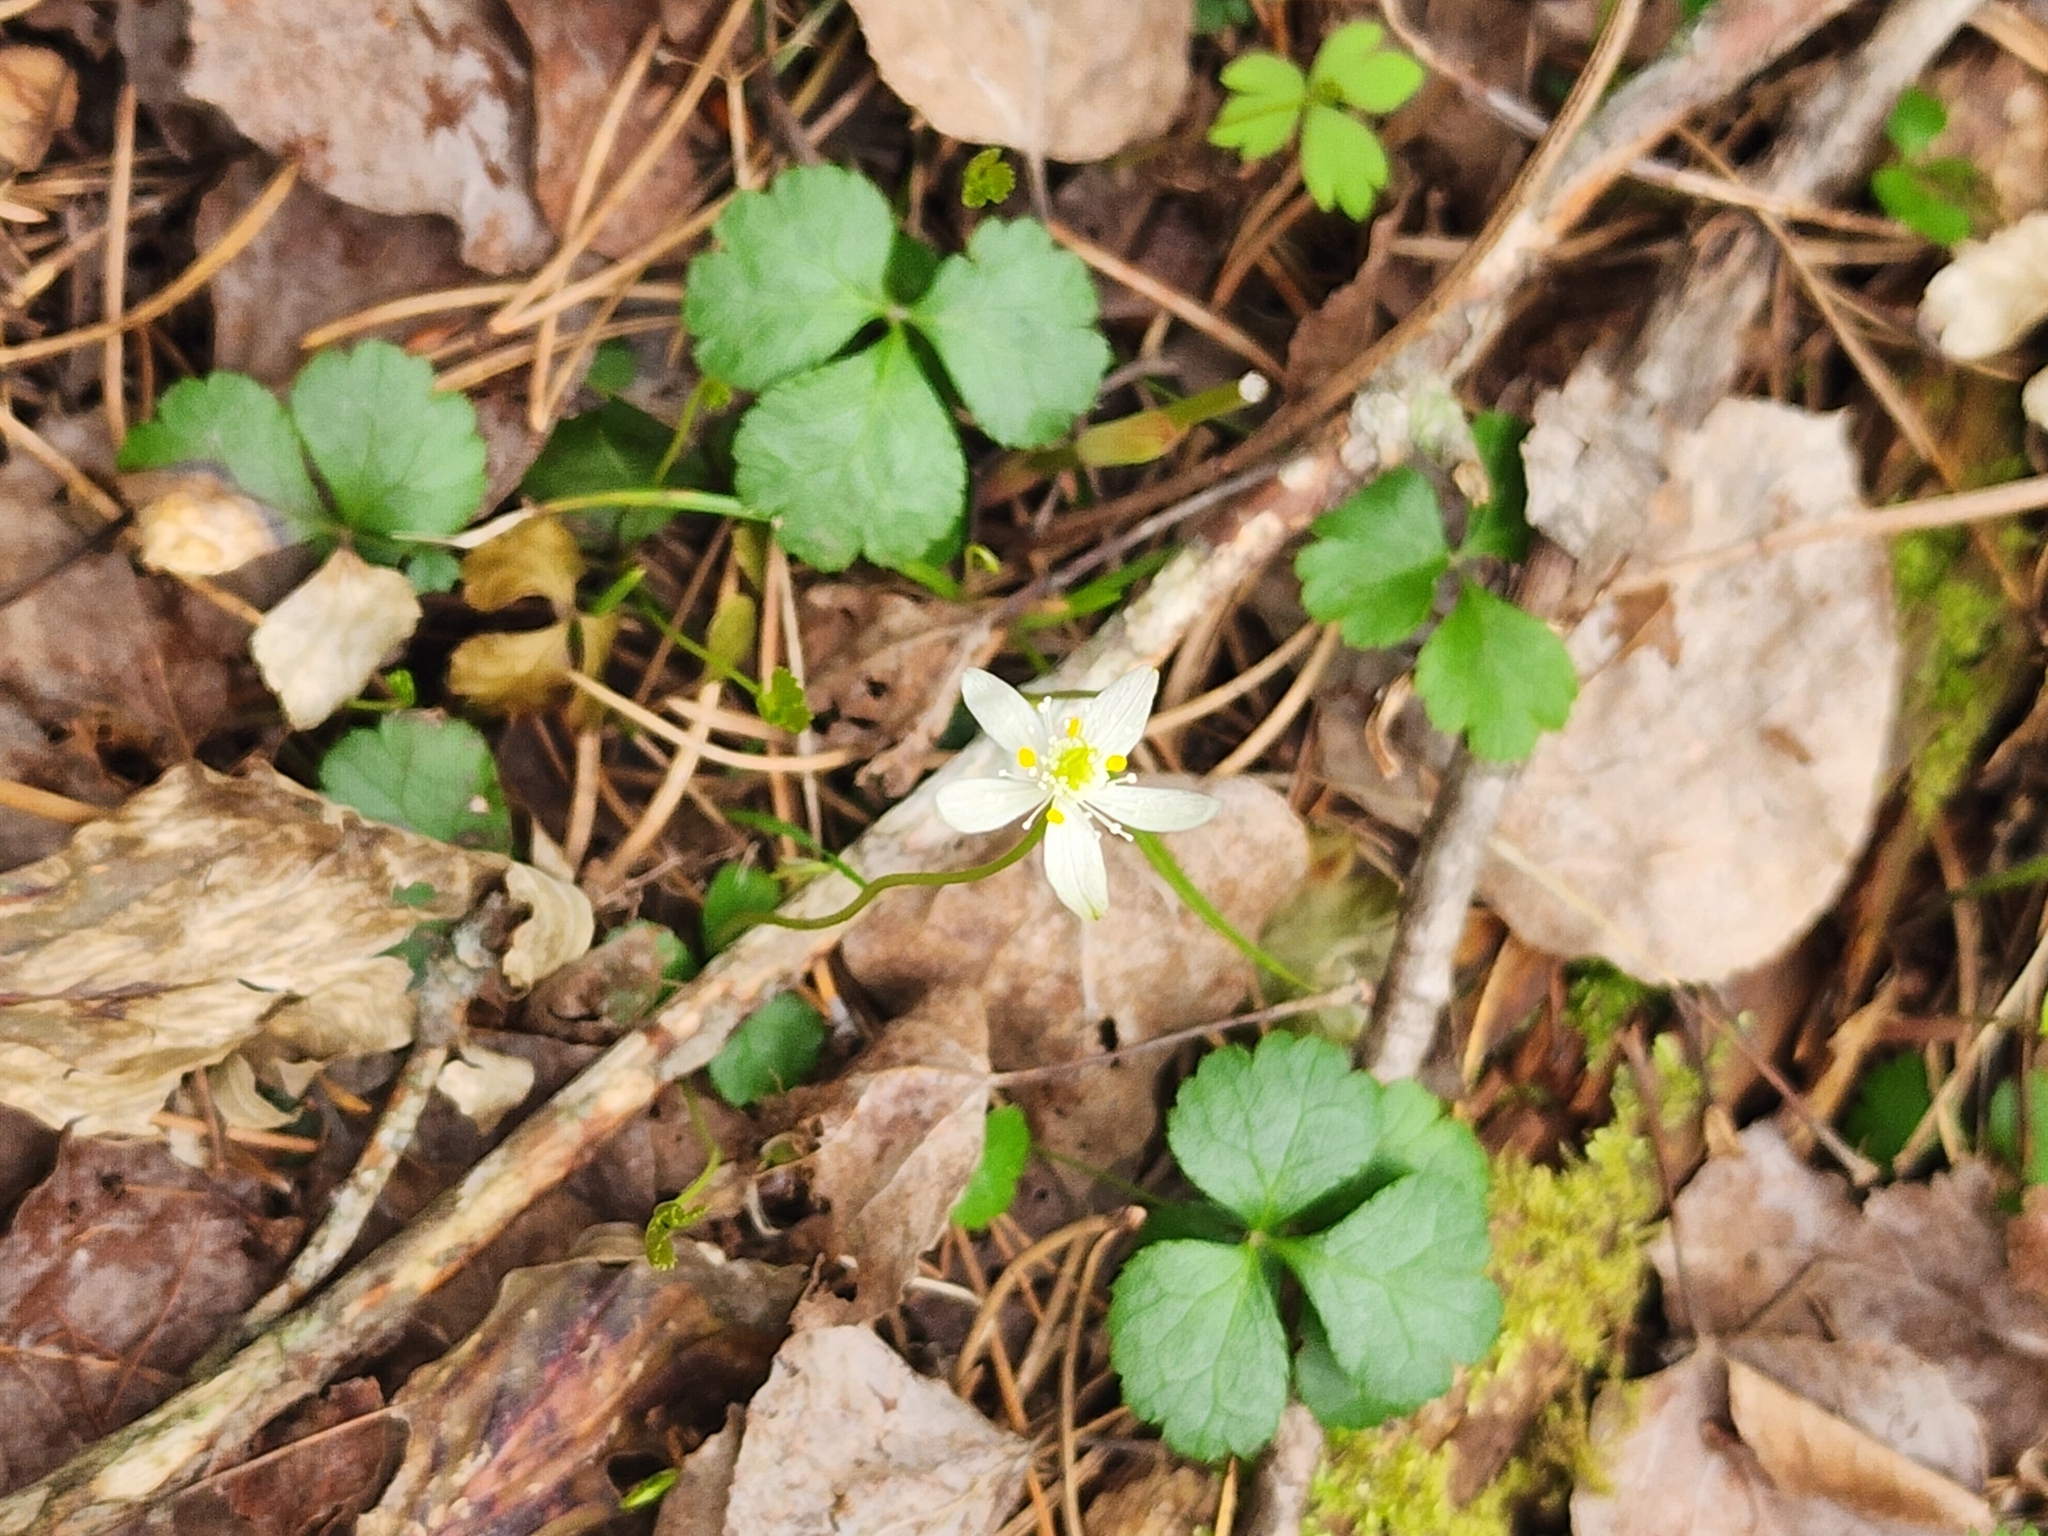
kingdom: Plantae
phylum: Tracheophyta
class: Magnoliopsida
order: Ranunculales
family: Ranunculaceae
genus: Coptis
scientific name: Coptis trifolia
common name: Canker-root
